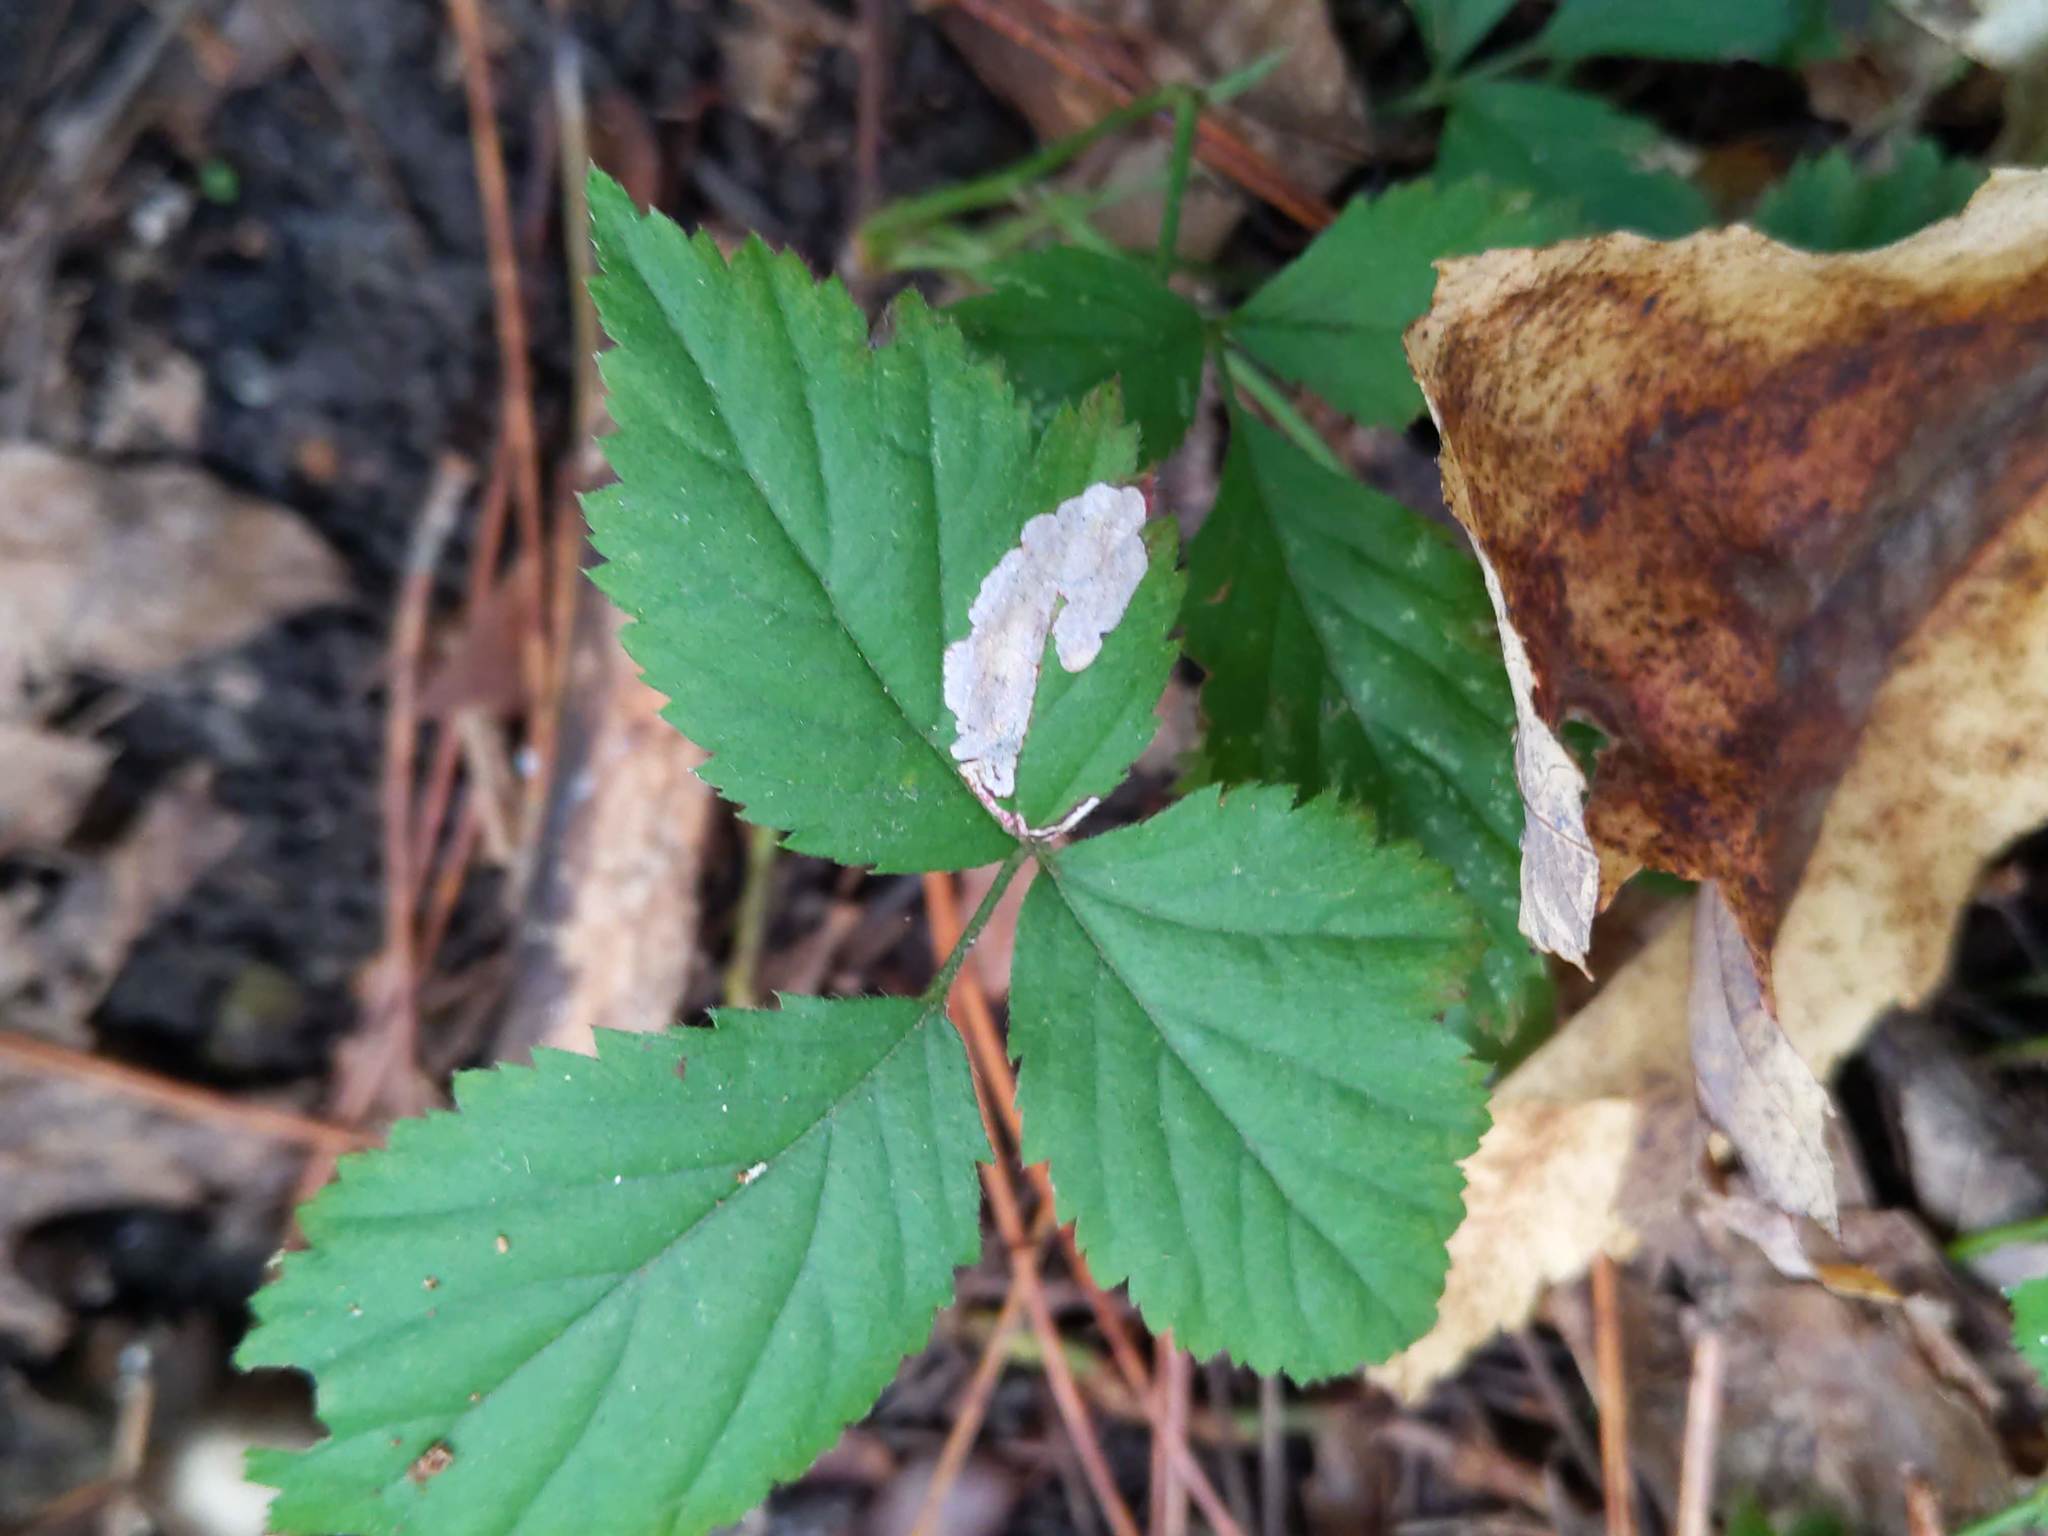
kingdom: Animalia
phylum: Arthropoda
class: Insecta
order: Lepidoptera
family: Nepticulidae
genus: Ectoedemia
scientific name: Ectoedemia rubifoliella
